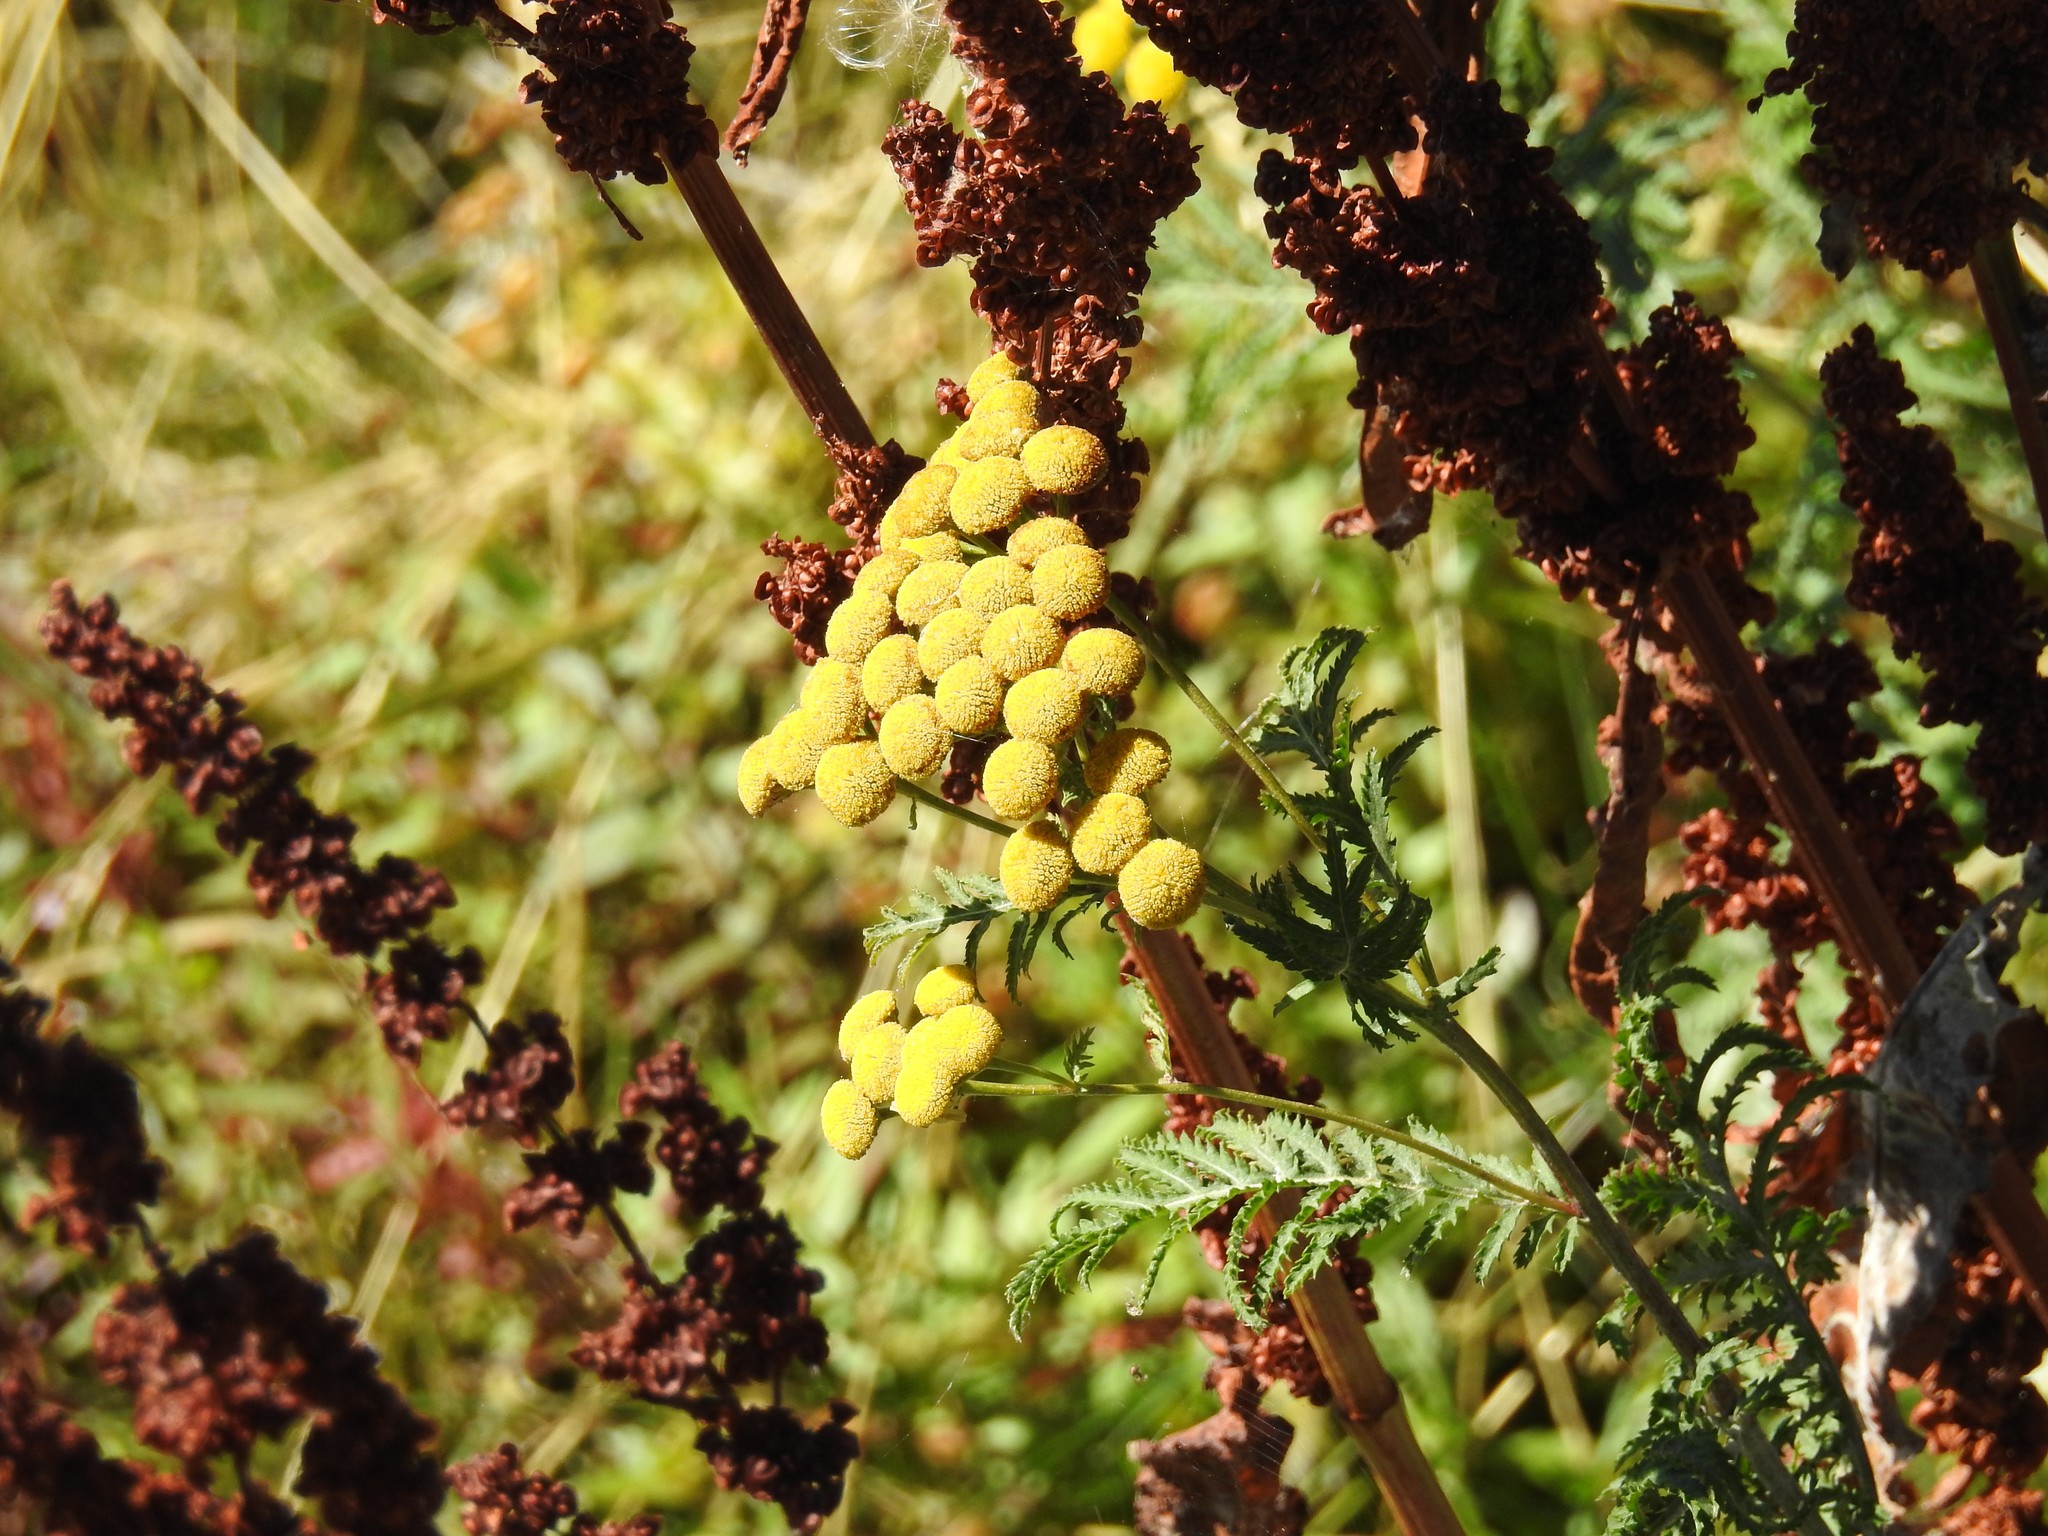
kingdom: Plantae
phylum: Tracheophyta
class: Magnoliopsida
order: Asterales
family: Asteraceae
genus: Tanacetum
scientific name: Tanacetum vulgare
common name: Common tansy
